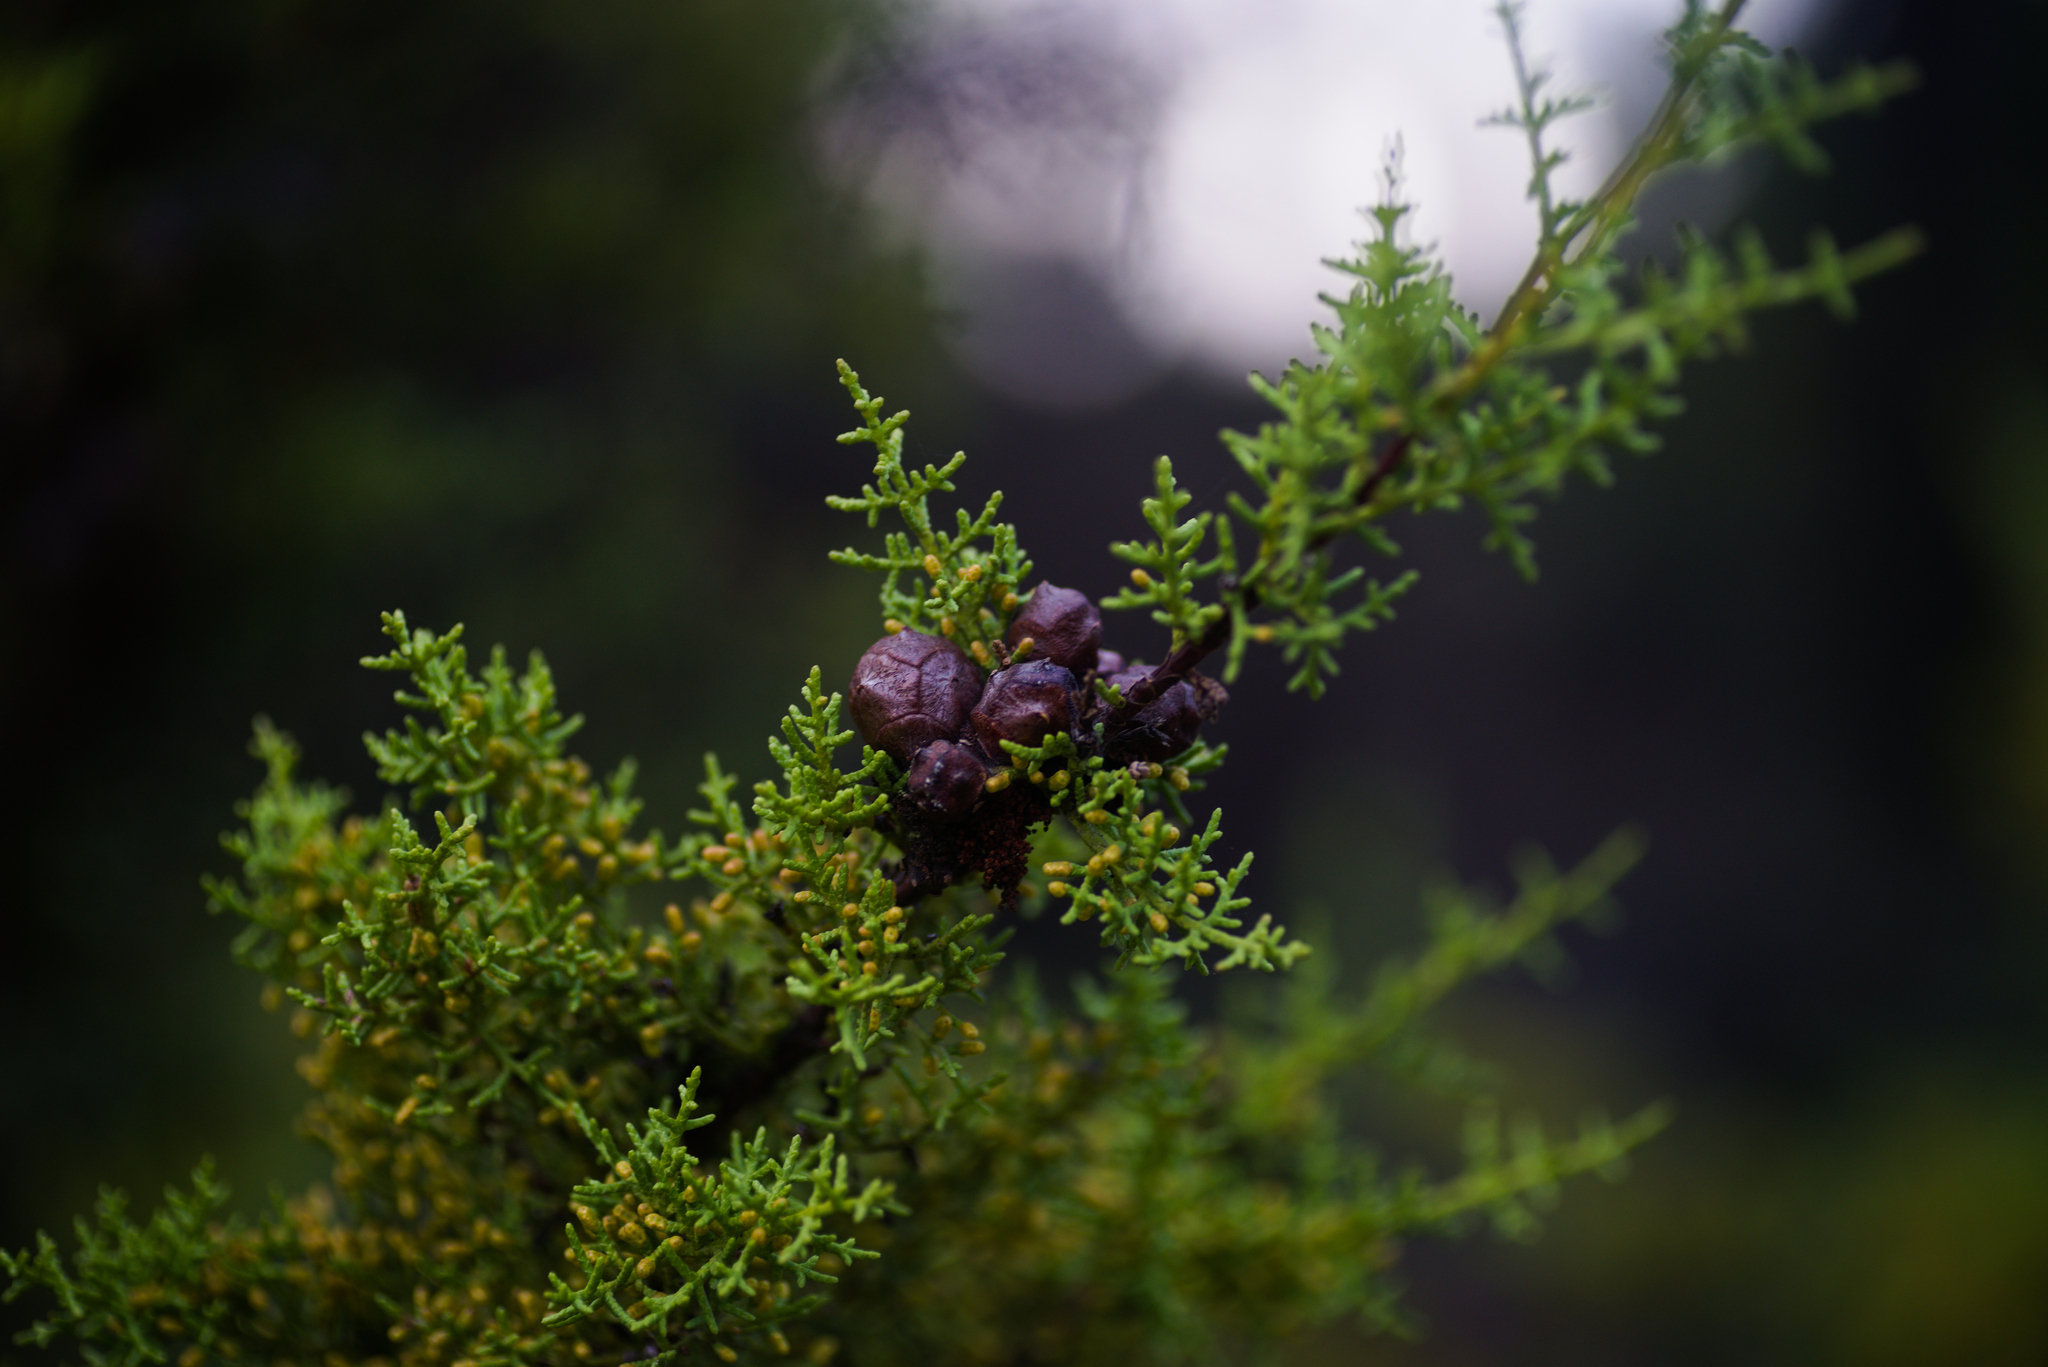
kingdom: Plantae
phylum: Tracheophyta
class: Pinopsida
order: Pinales
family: Cupressaceae
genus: Cupressus
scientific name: Cupressus goveniana
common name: Gowen cypress
